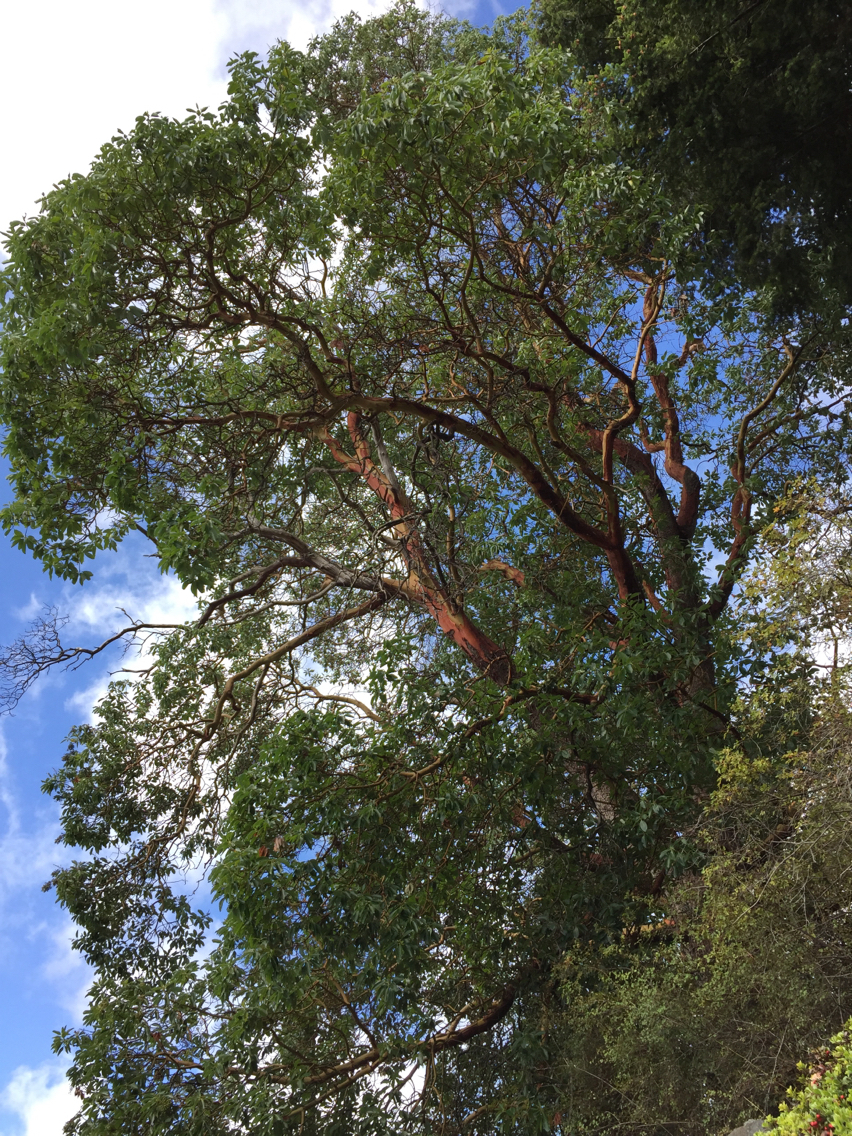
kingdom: Plantae
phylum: Tracheophyta
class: Magnoliopsida
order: Ericales
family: Ericaceae
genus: Arbutus
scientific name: Arbutus menziesii
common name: Pacific madrone
